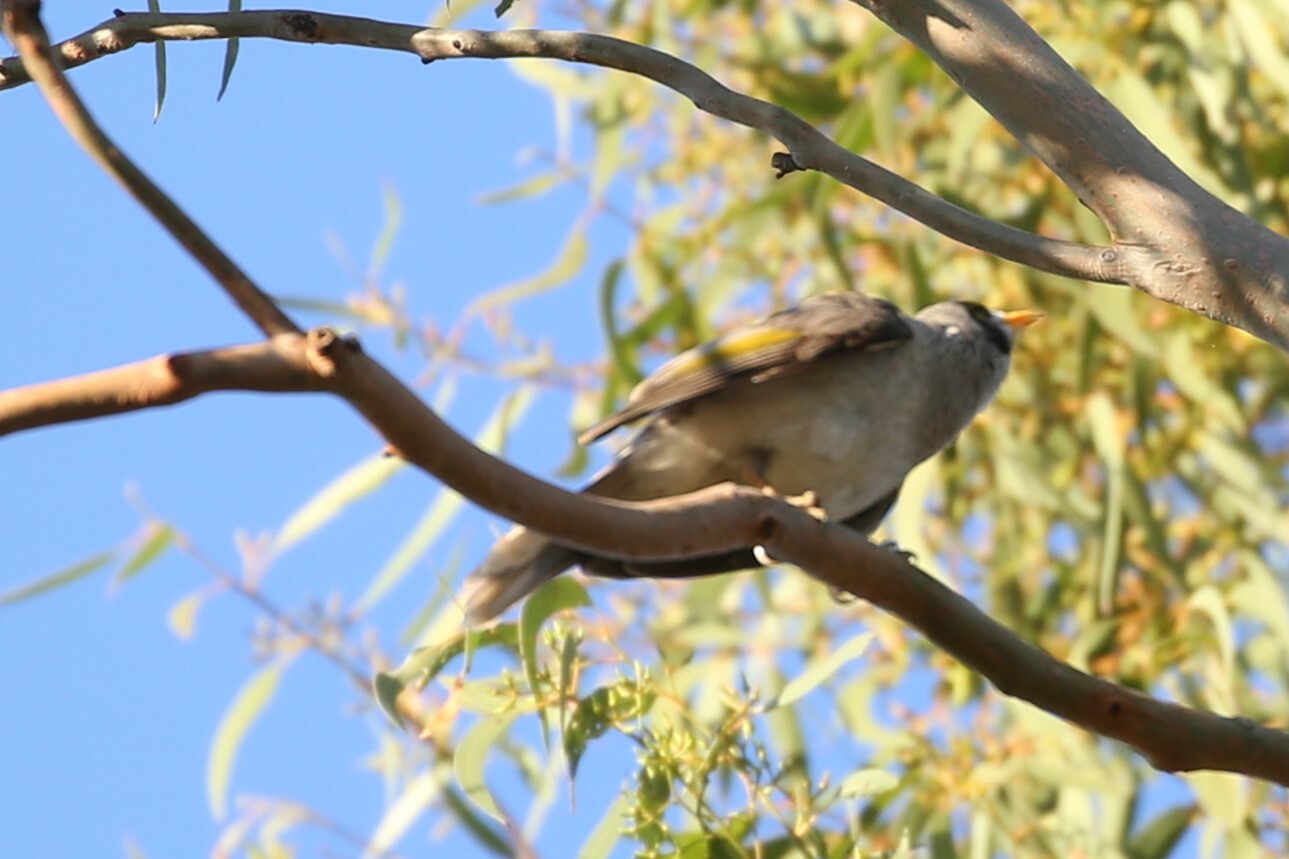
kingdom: Animalia
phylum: Chordata
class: Aves
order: Passeriformes
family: Meliphagidae
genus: Manorina
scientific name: Manorina melanocephala
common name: Noisy miner
